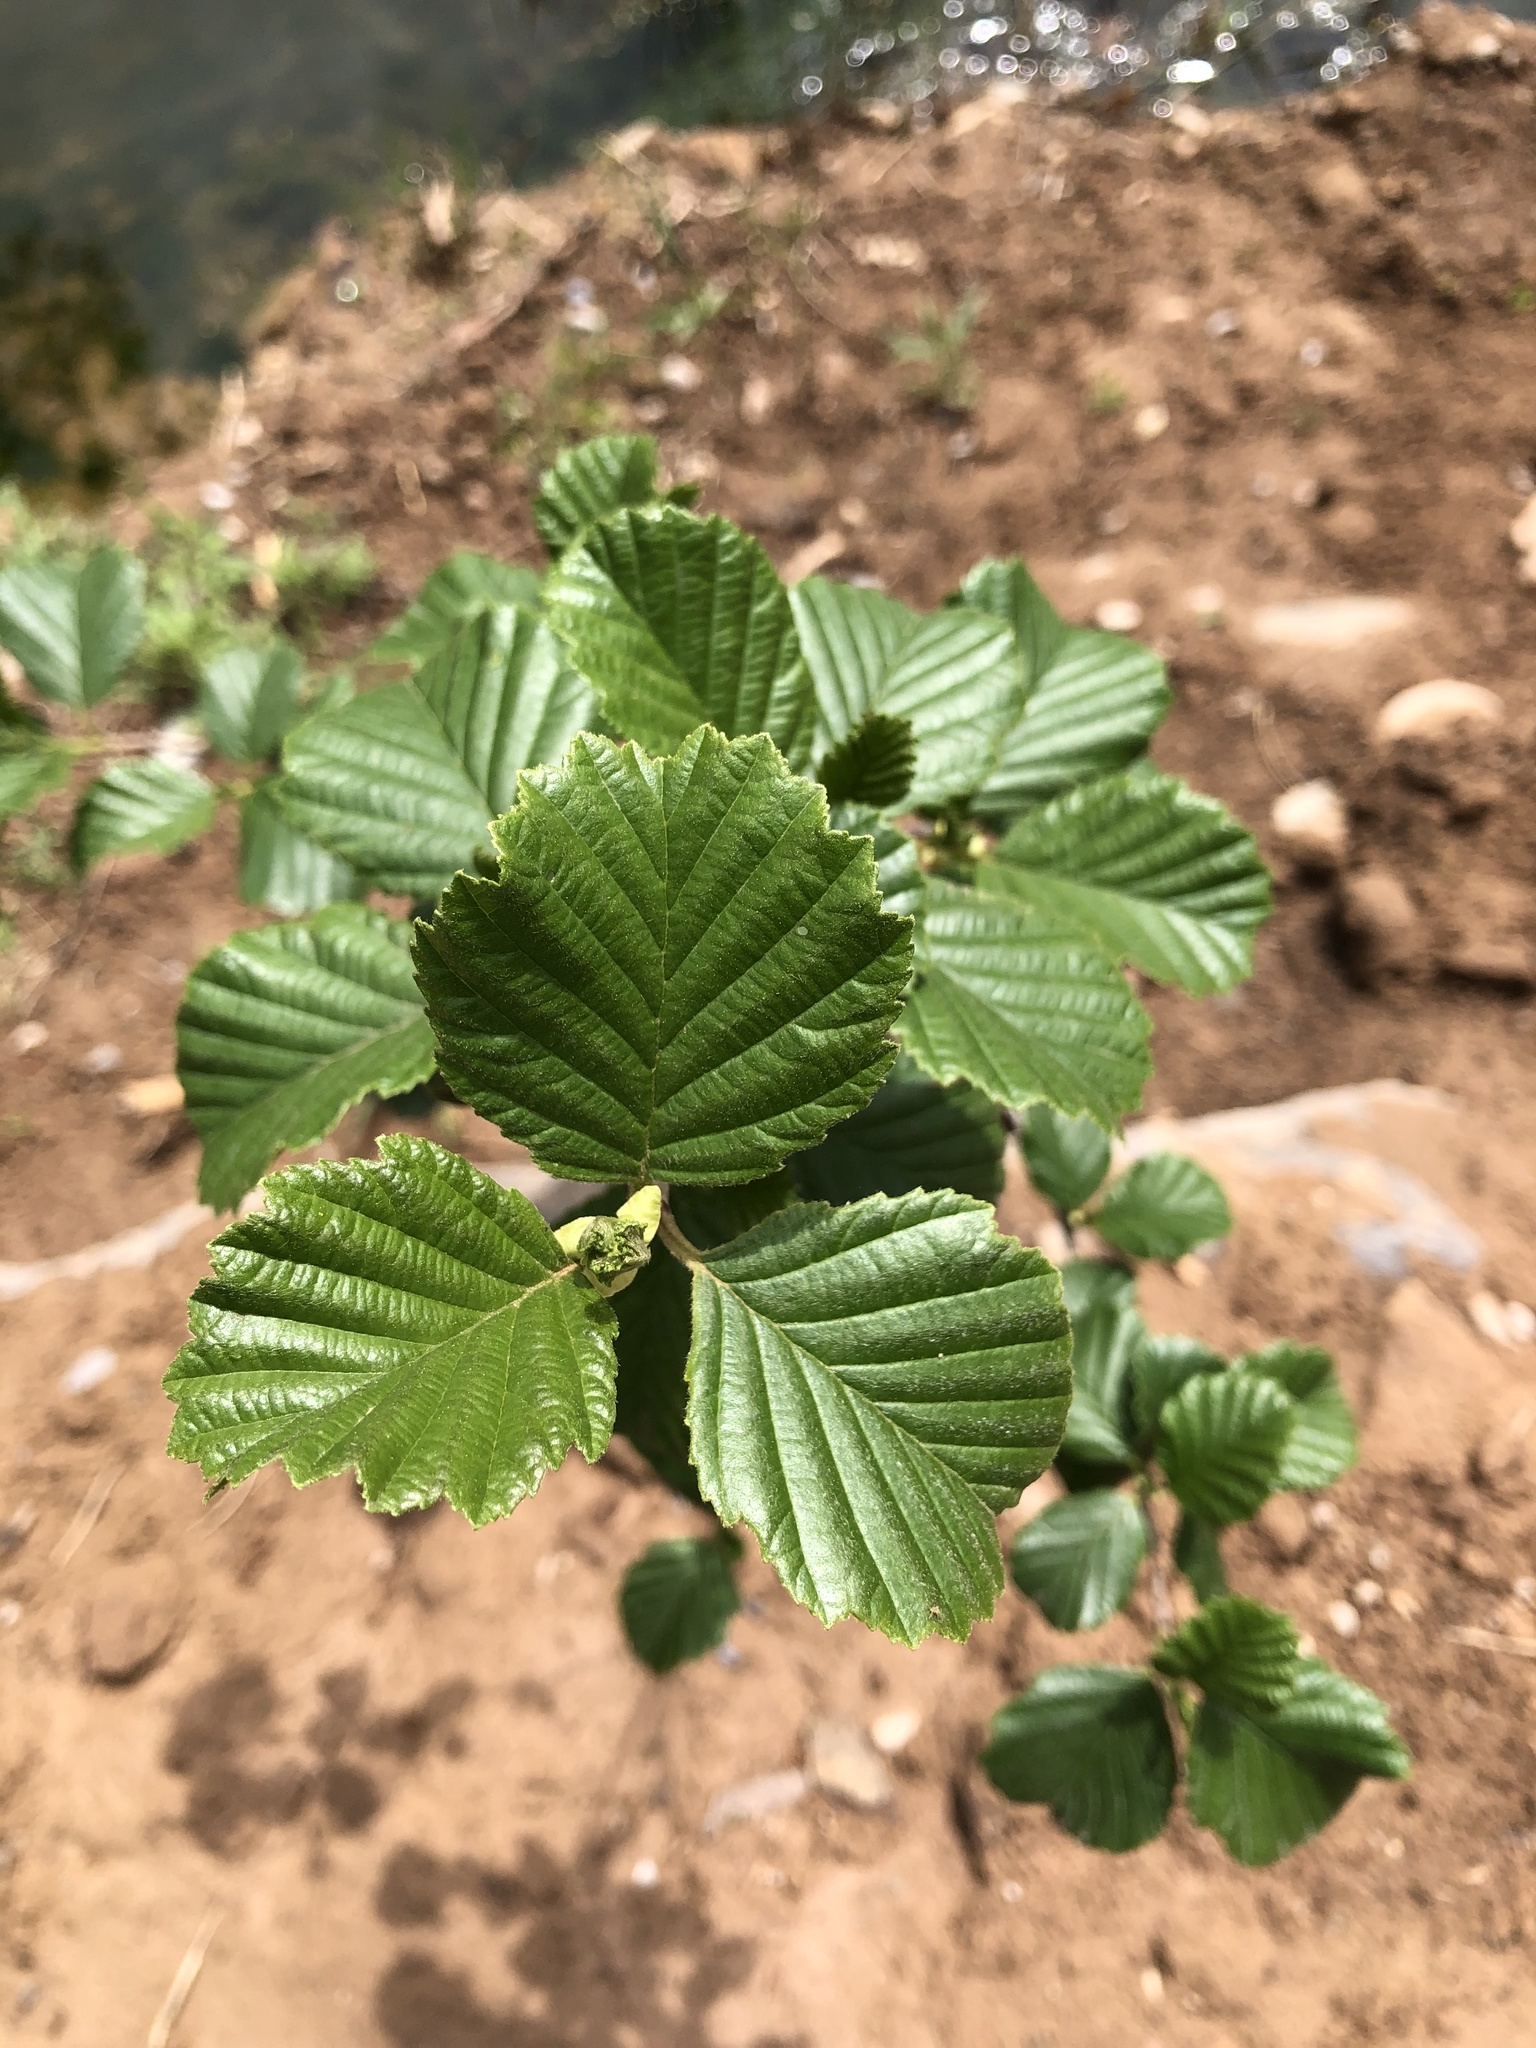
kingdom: Plantae
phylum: Tracheophyta
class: Magnoliopsida
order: Fagales
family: Betulaceae
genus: Alnus
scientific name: Alnus glutinosa
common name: Black alder
